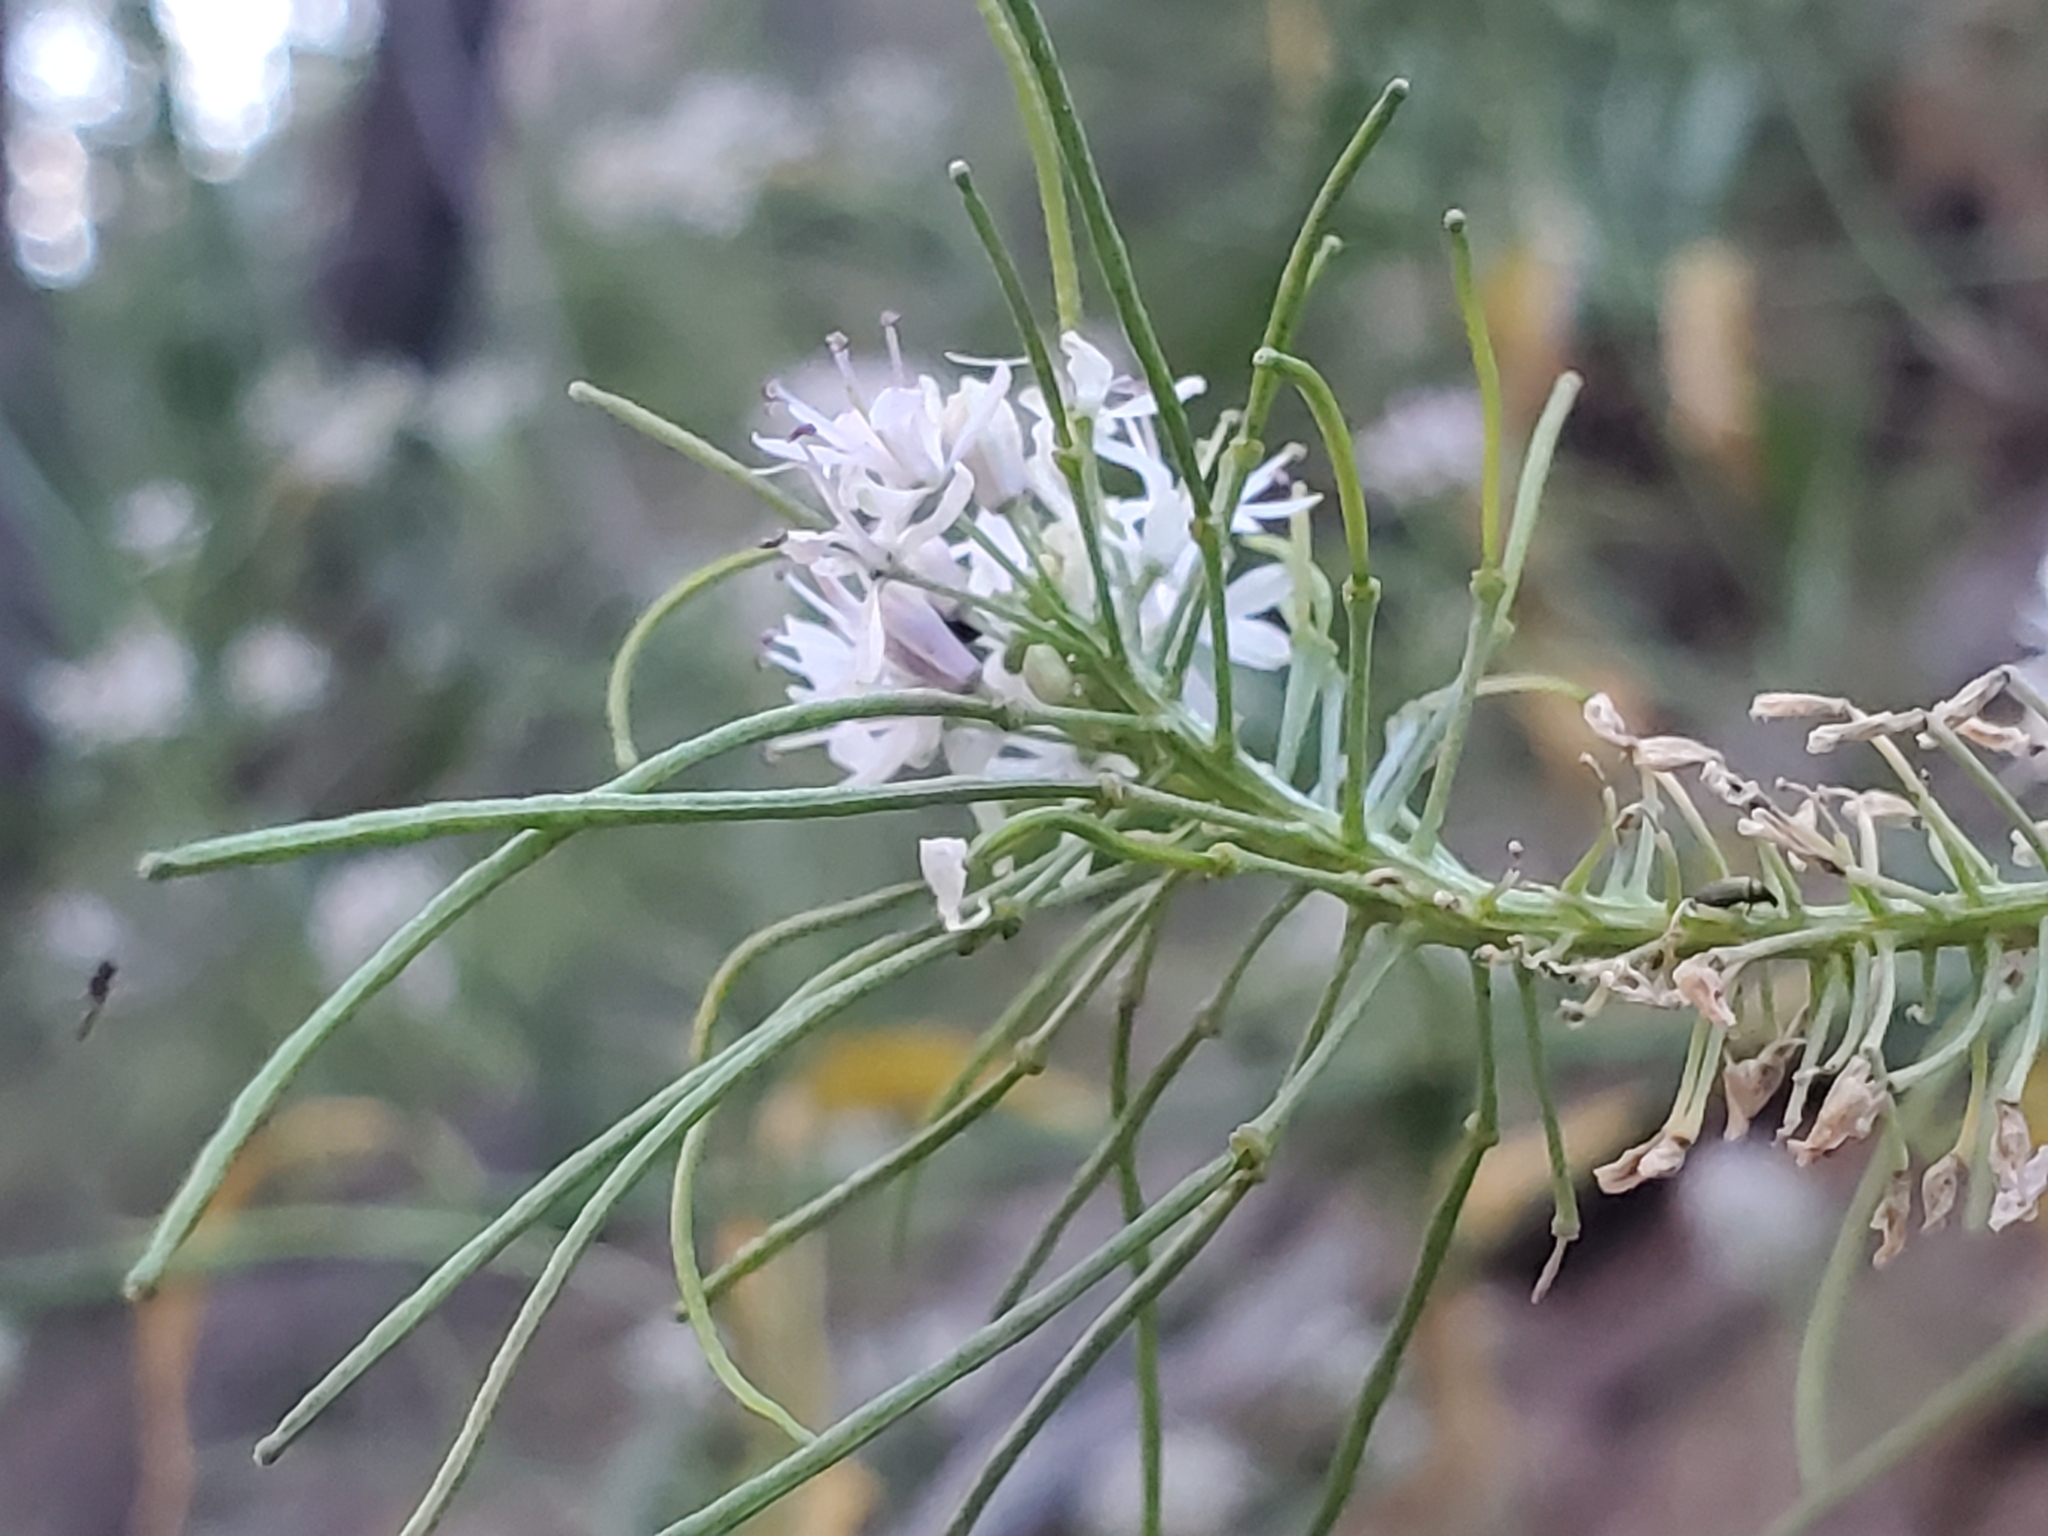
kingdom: Plantae
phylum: Tracheophyta
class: Magnoliopsida
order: Brassicales
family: Brassicaceae
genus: Thelypodium
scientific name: Thelypodium wrightii
